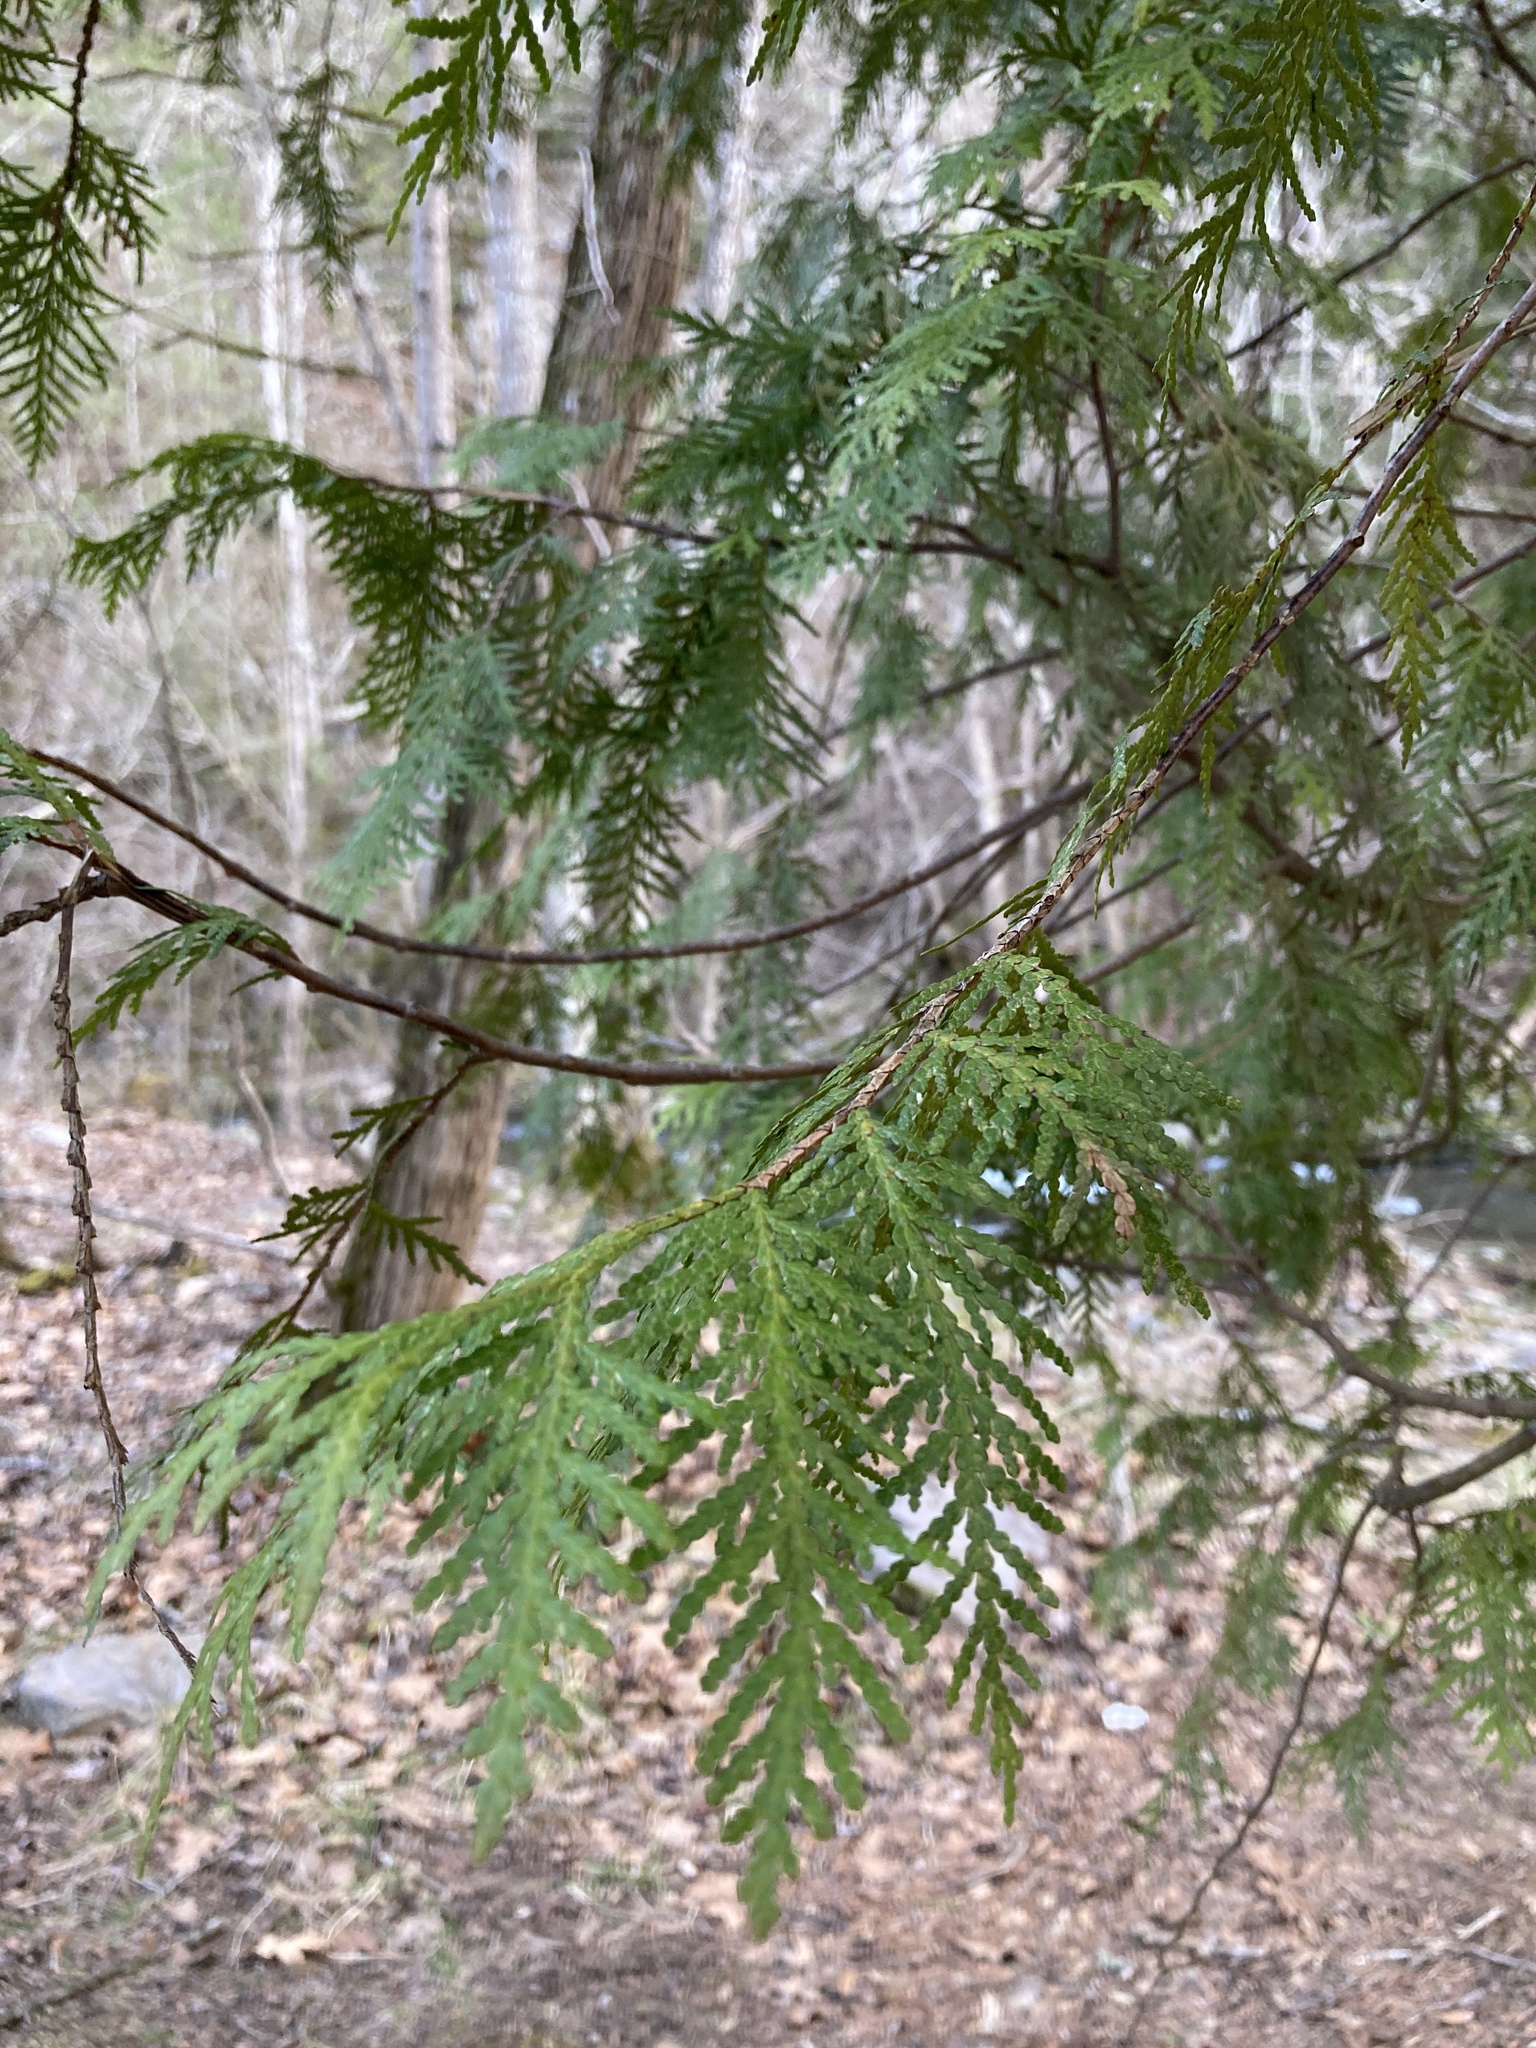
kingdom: Plantae
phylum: Tracheophyta
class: Pinopsida
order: Pinales
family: Cupressaceae
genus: Thuja
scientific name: Thuja occidentalis
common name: Northern white-cedar
